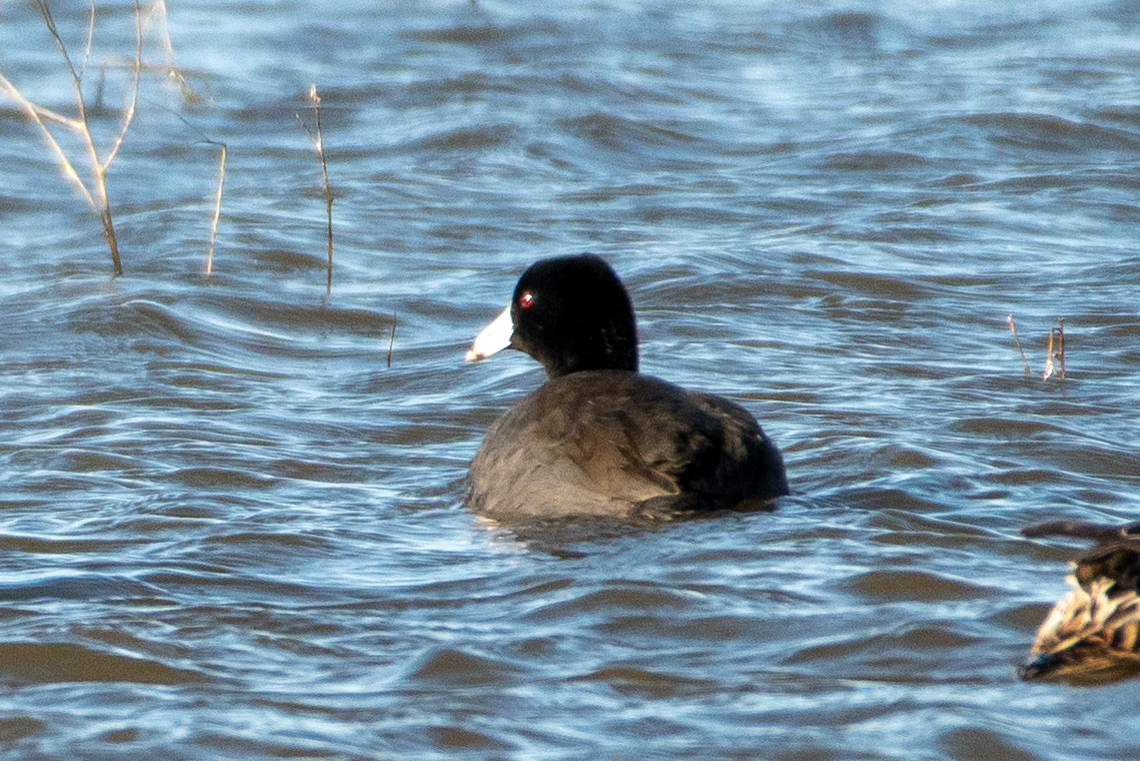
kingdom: Animalia
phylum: Chordata
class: Aves
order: Gruiformes
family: Rallidae
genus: Fulica
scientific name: Fulica americana
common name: American coot
